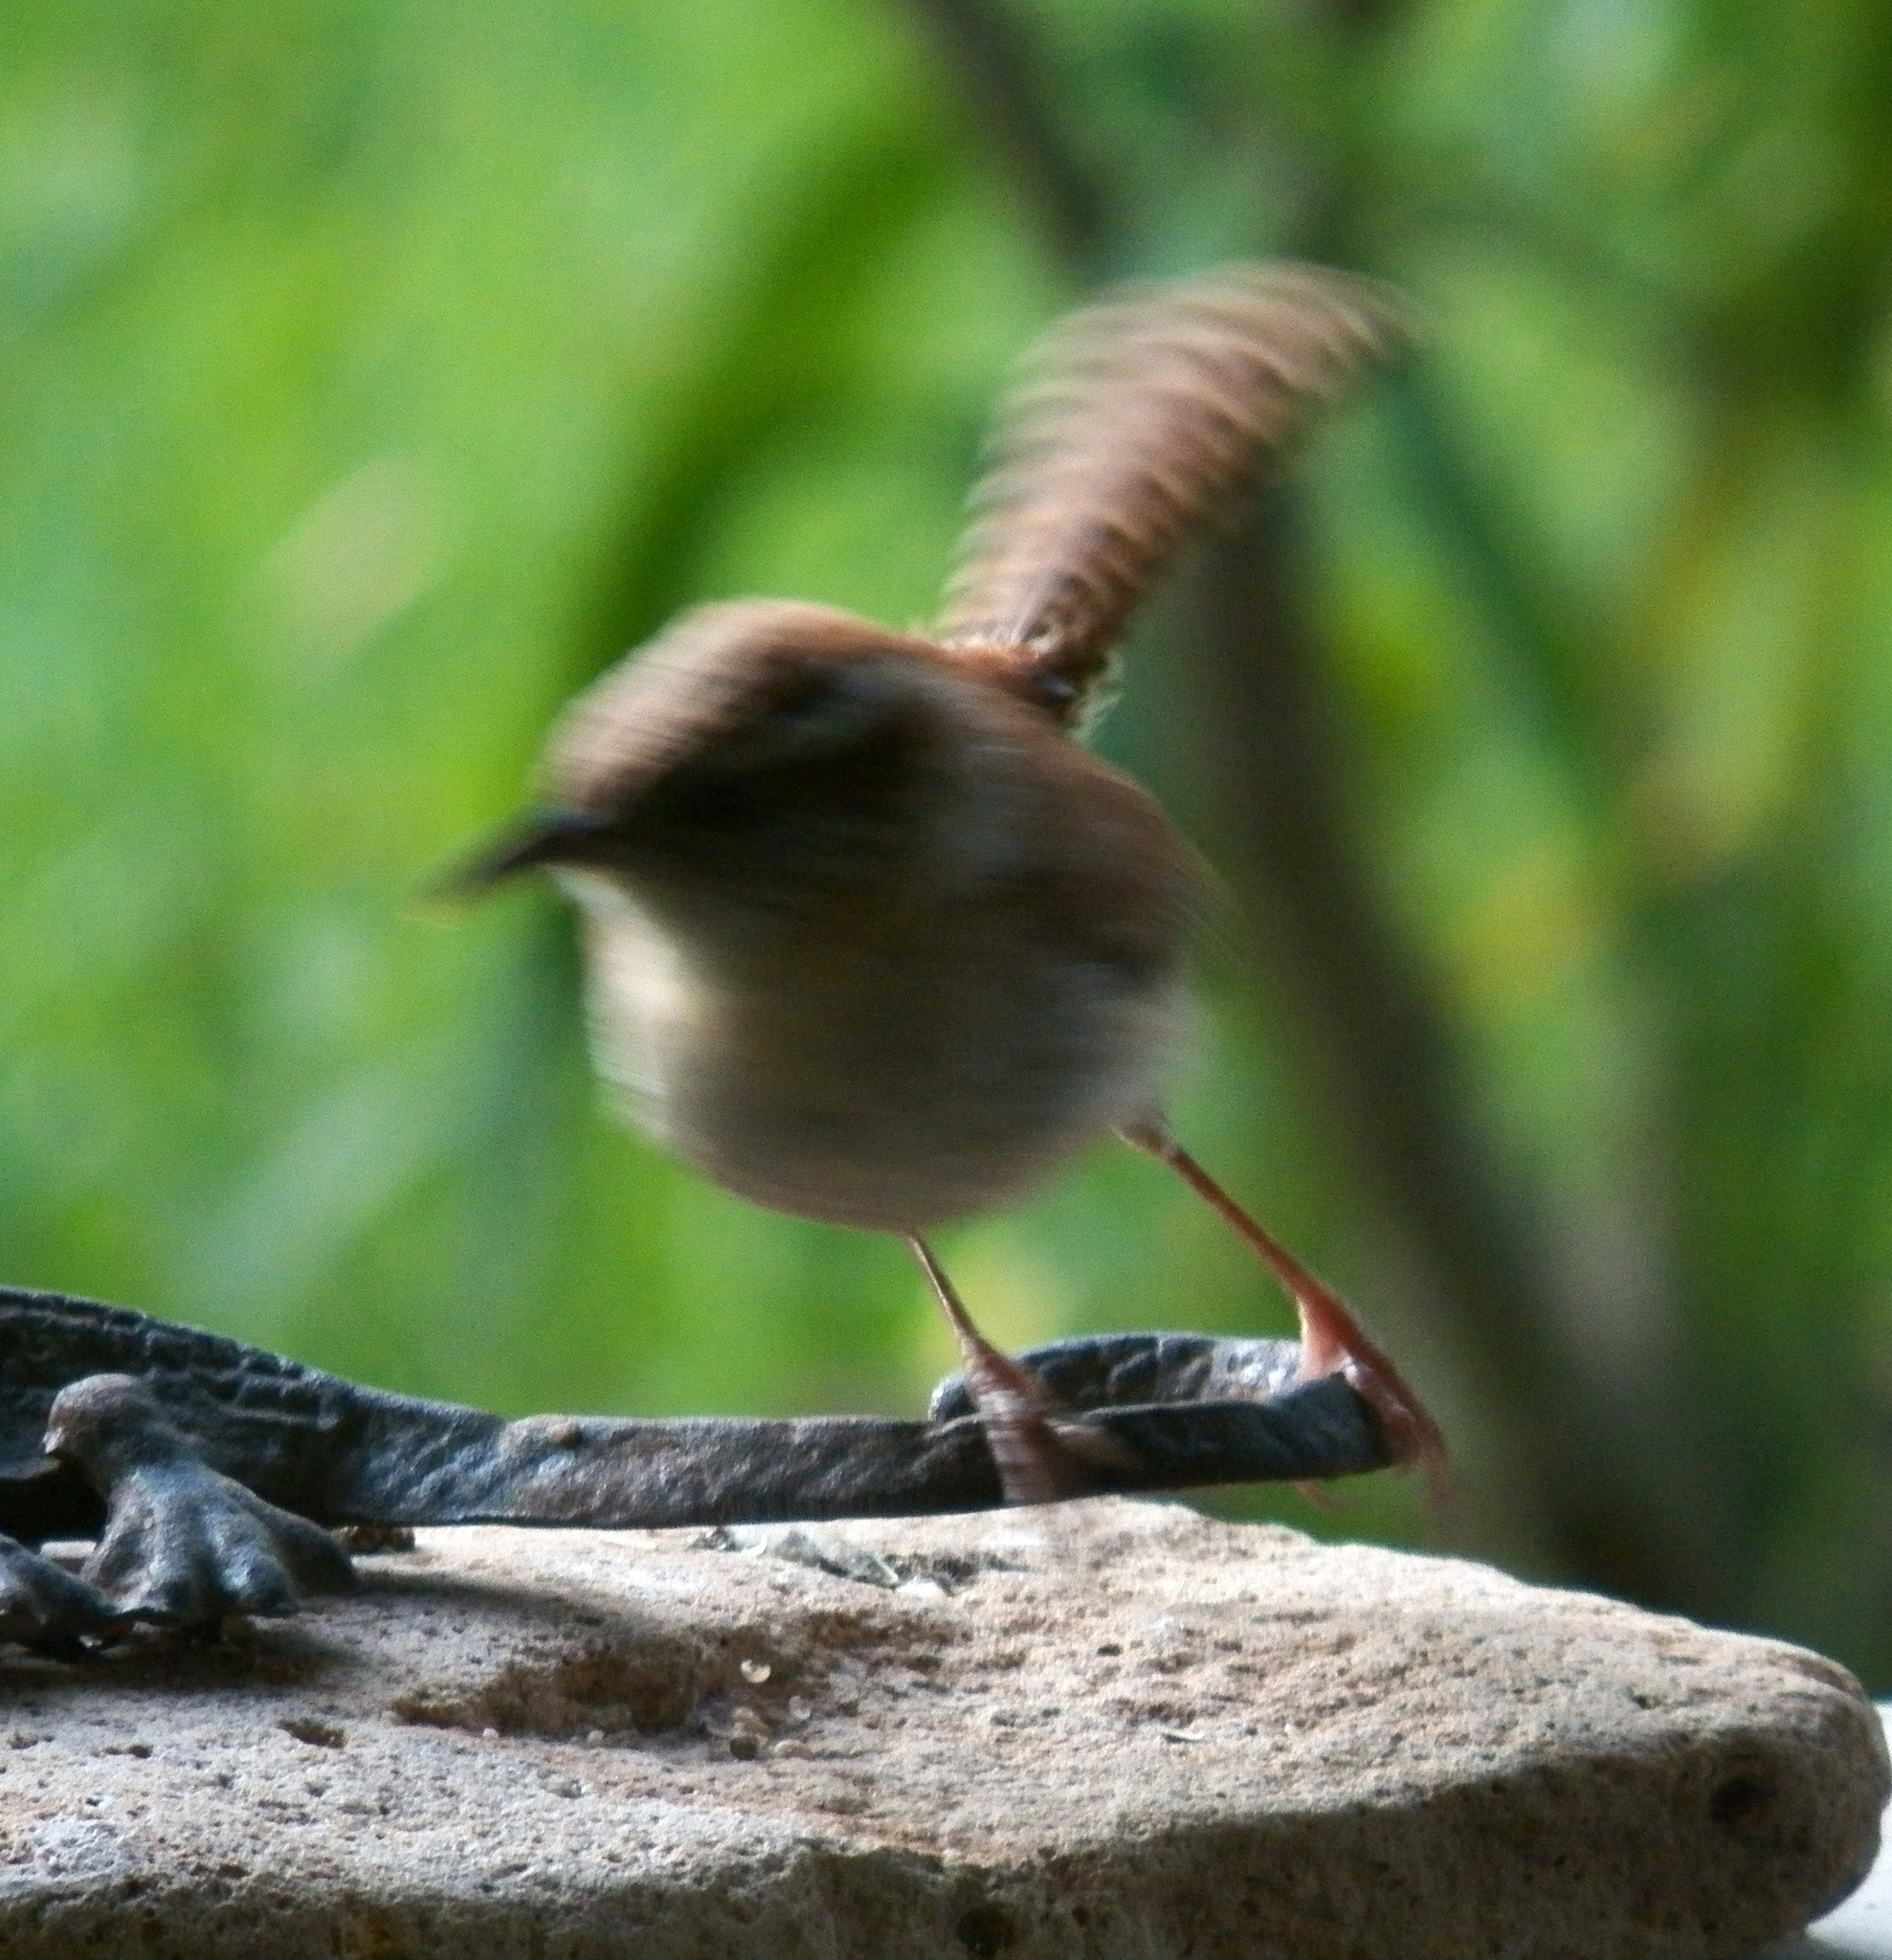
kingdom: Animalia
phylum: Chordata
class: Aves
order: Passeriformes
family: Troglodytidae
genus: Thryothorus
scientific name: Thryothorus ludovicianus
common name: Carolina wren
